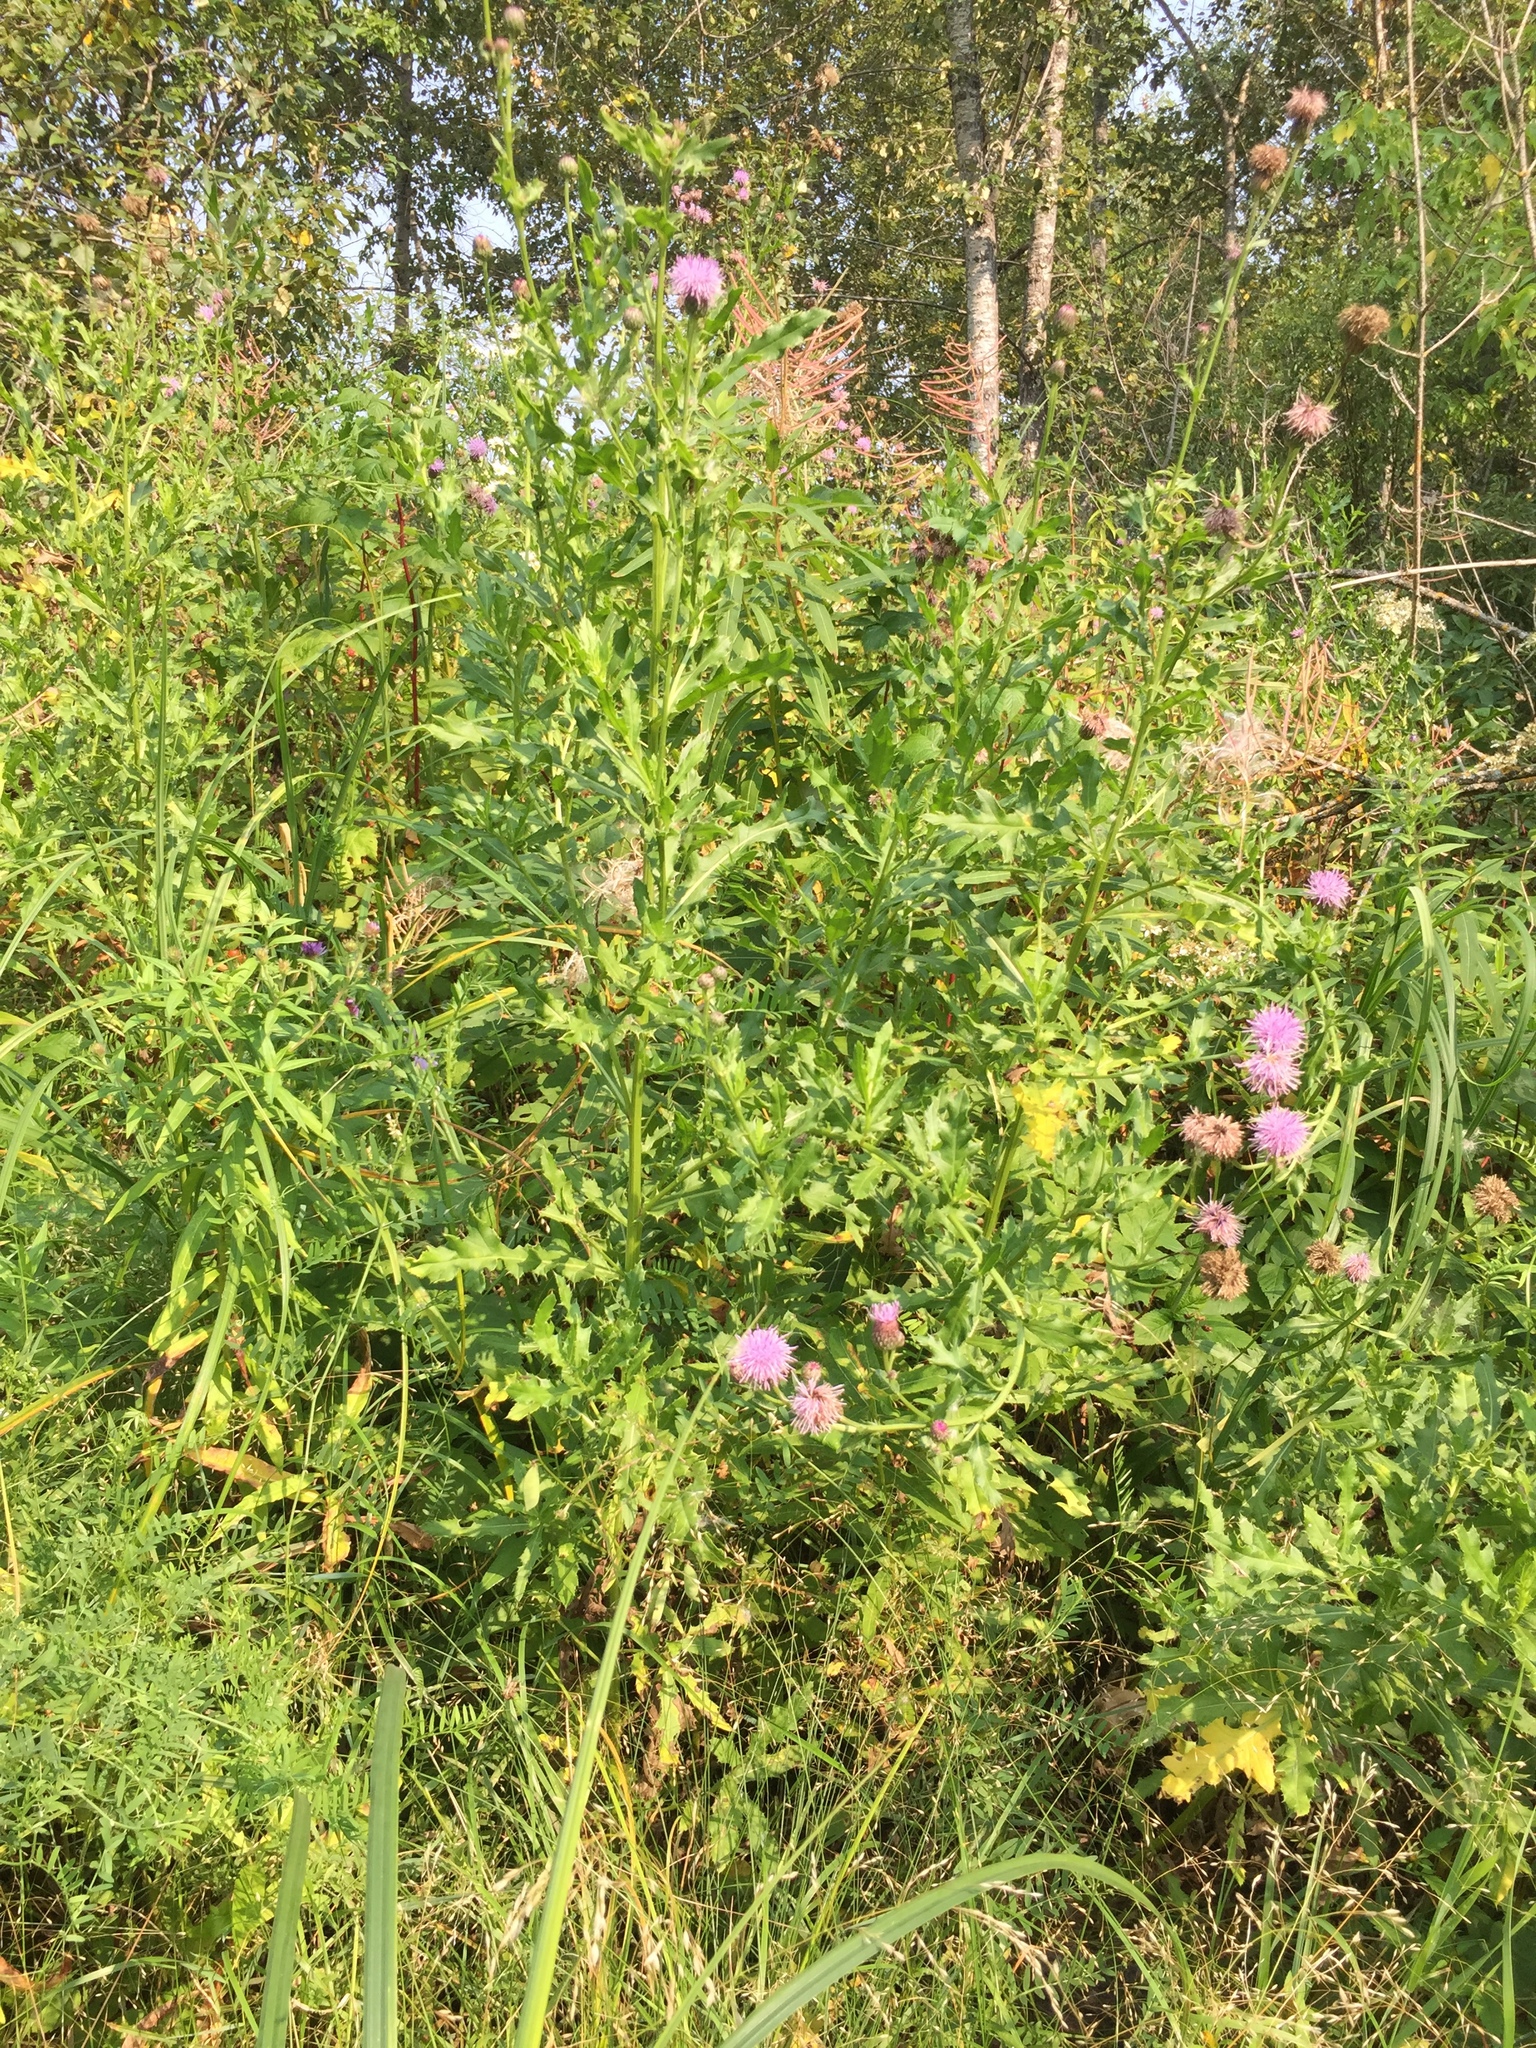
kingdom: Plantae
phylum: Tracheophyta
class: Magnoliopsida
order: Asterales
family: Asteraceae
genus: Cirsium
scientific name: Cirsium arvense
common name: Creeping thistle
